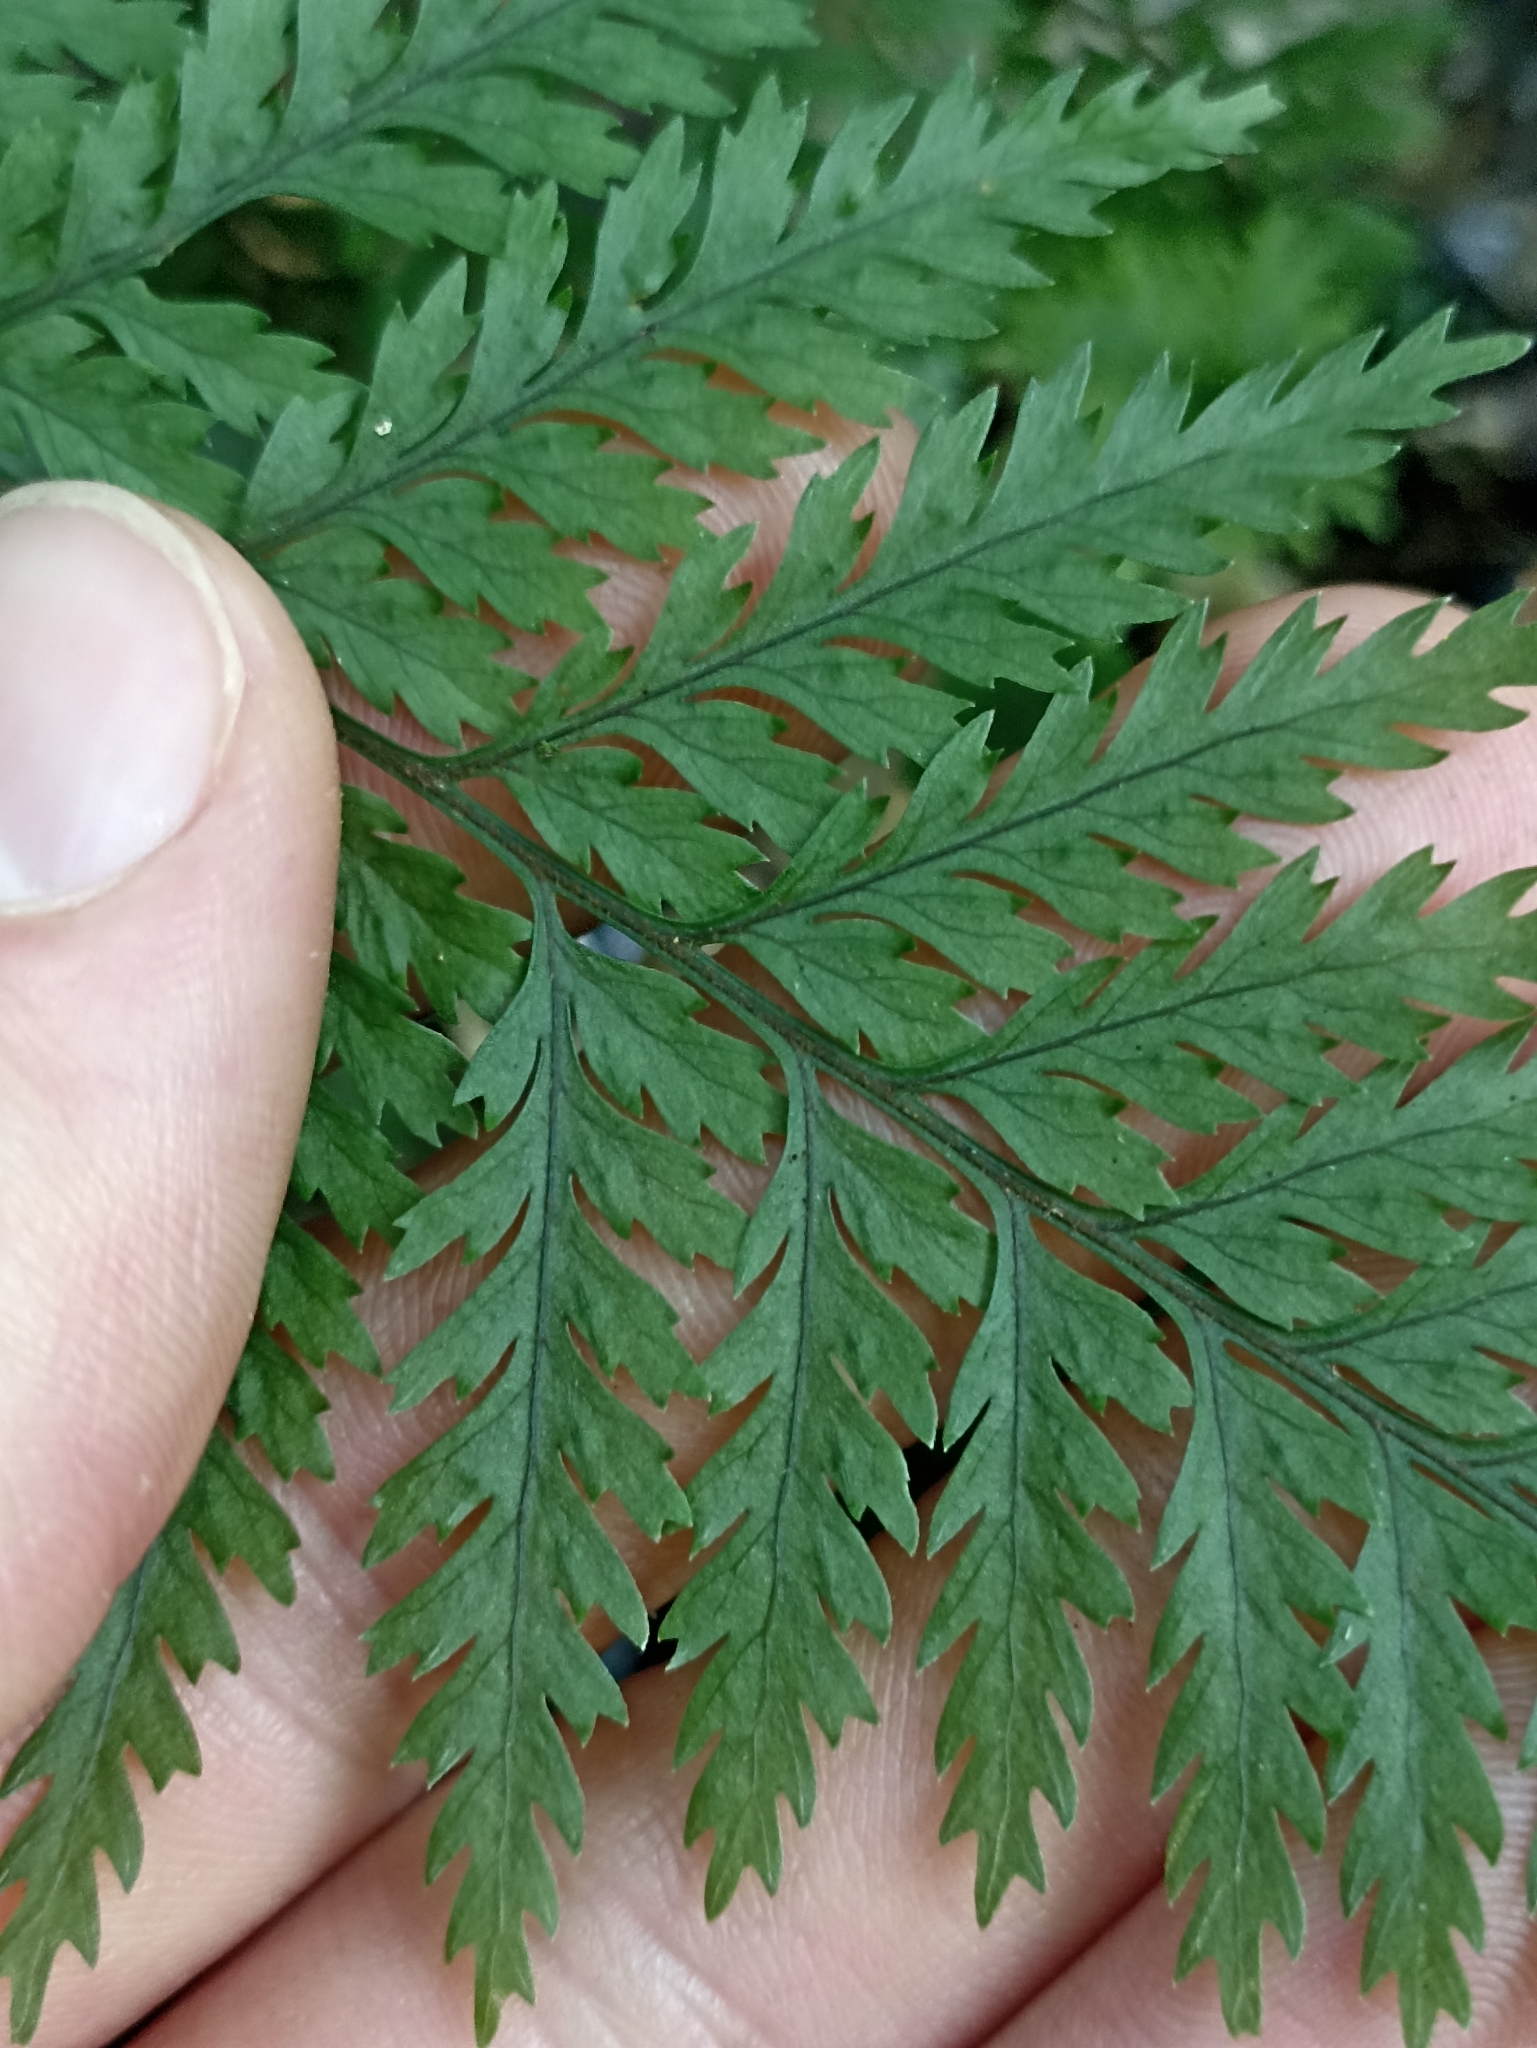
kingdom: Plantae
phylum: Tracheophyta
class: Polypodiopsida
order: Polypodiales
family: Dryopteridaceae
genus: Parapolystichum
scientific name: Parapolystichum glabellum
